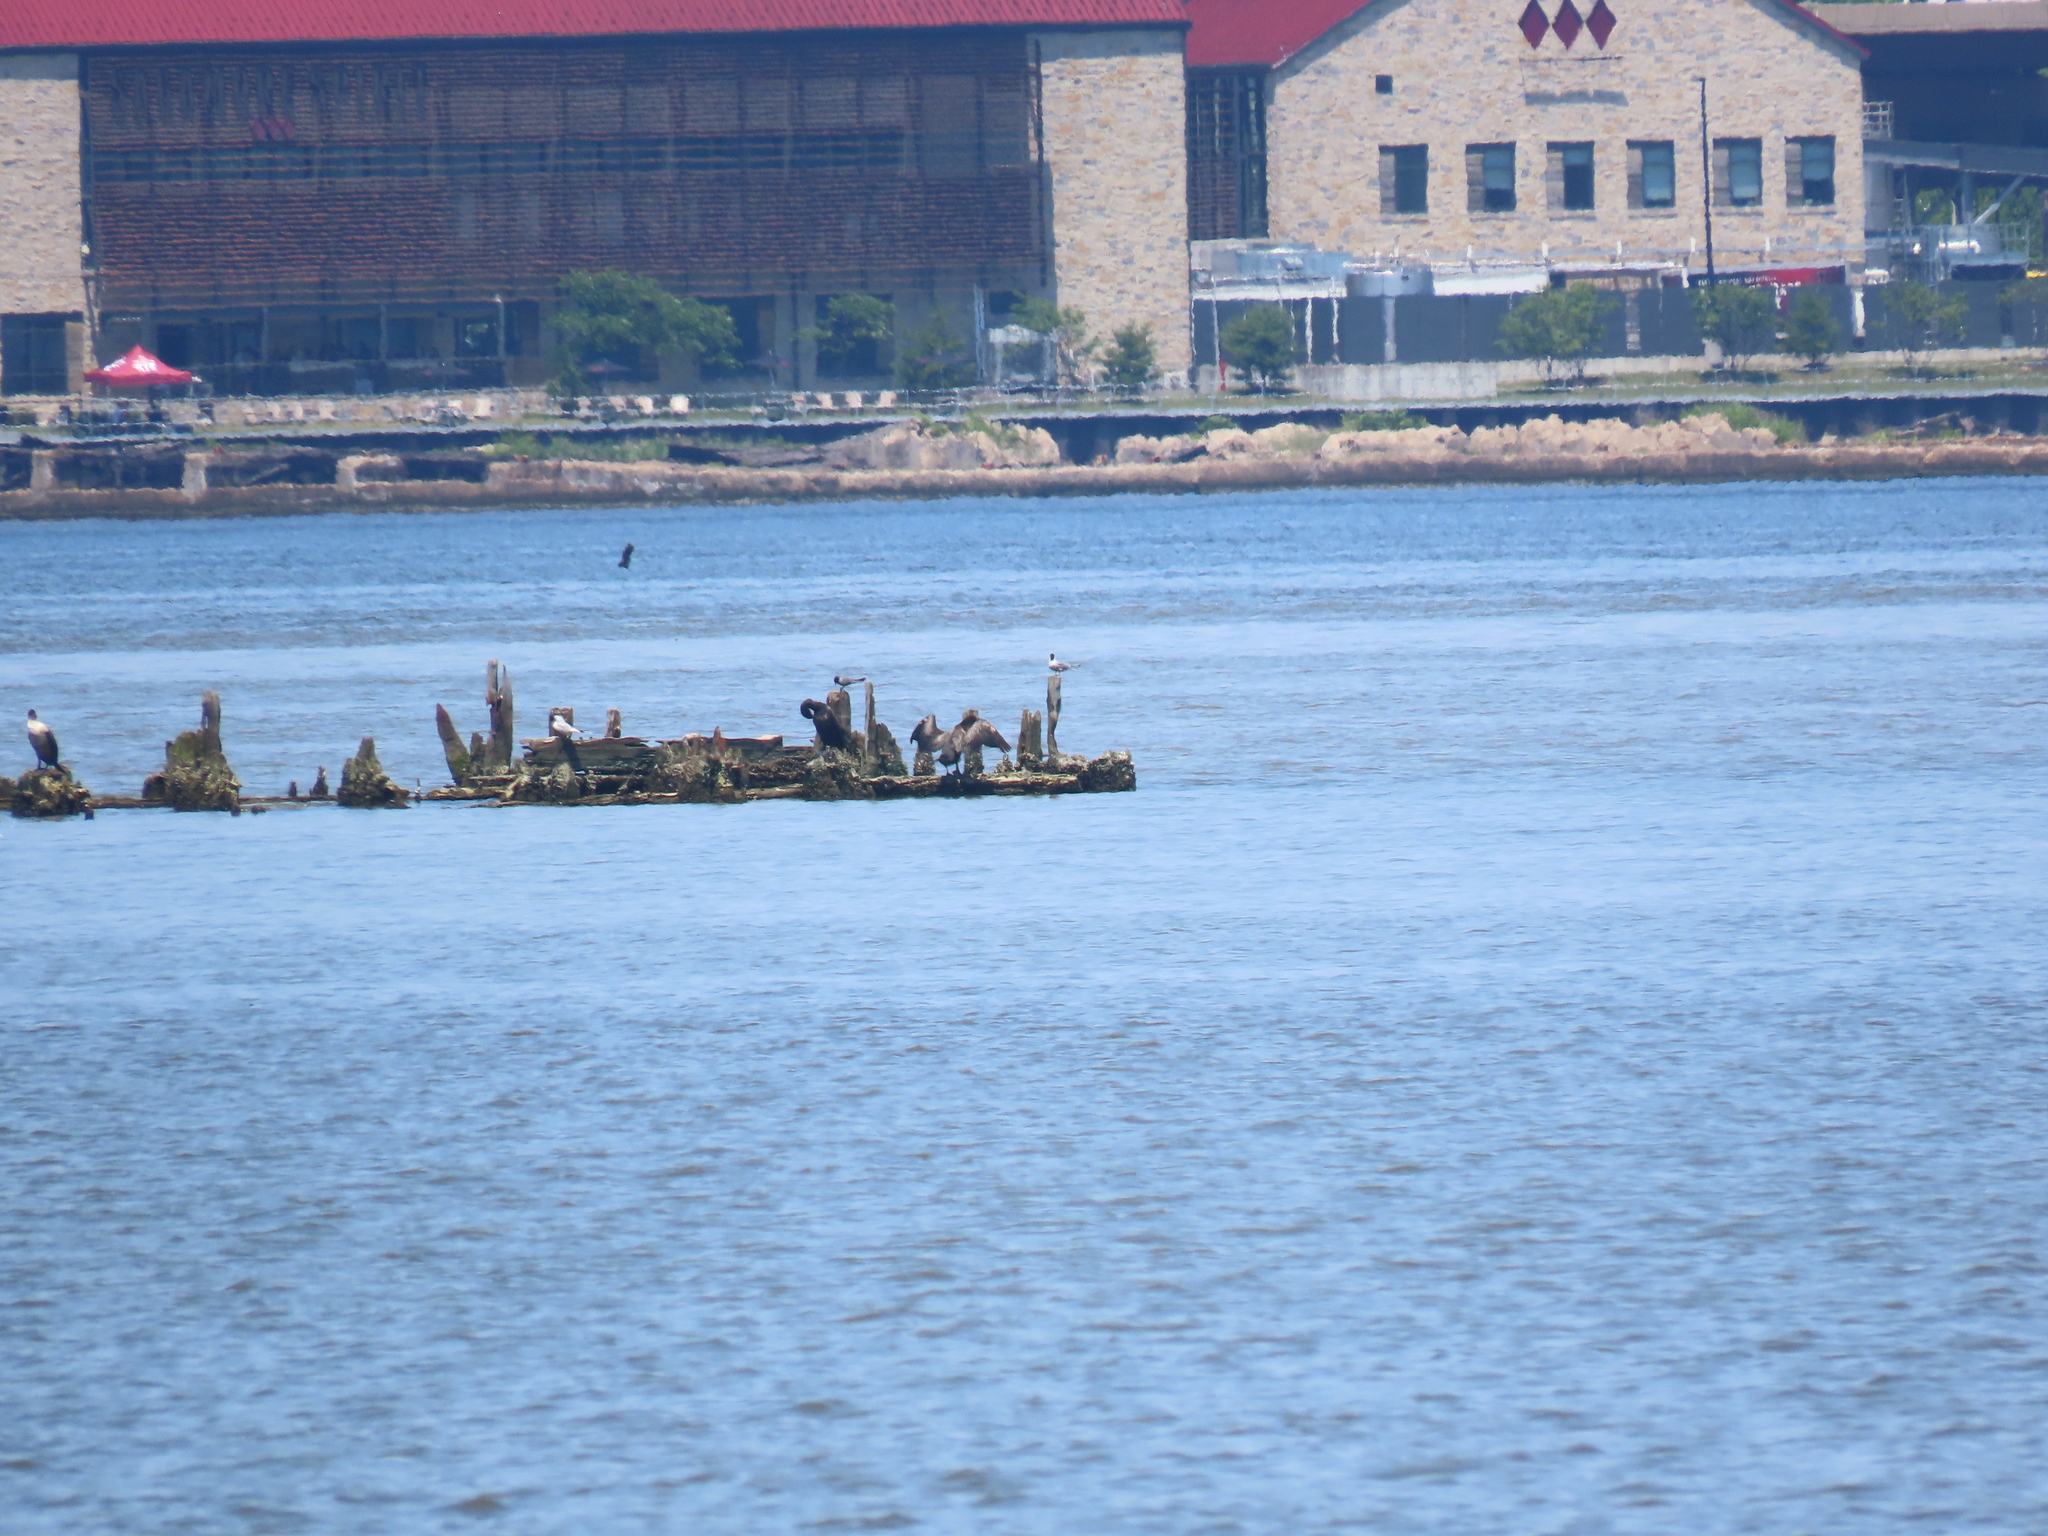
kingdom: Animalia
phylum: Chordata
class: Aves
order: Charadriiformes
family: Laridae
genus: Chlidonias
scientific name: Chlidonias niger
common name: Black tern
